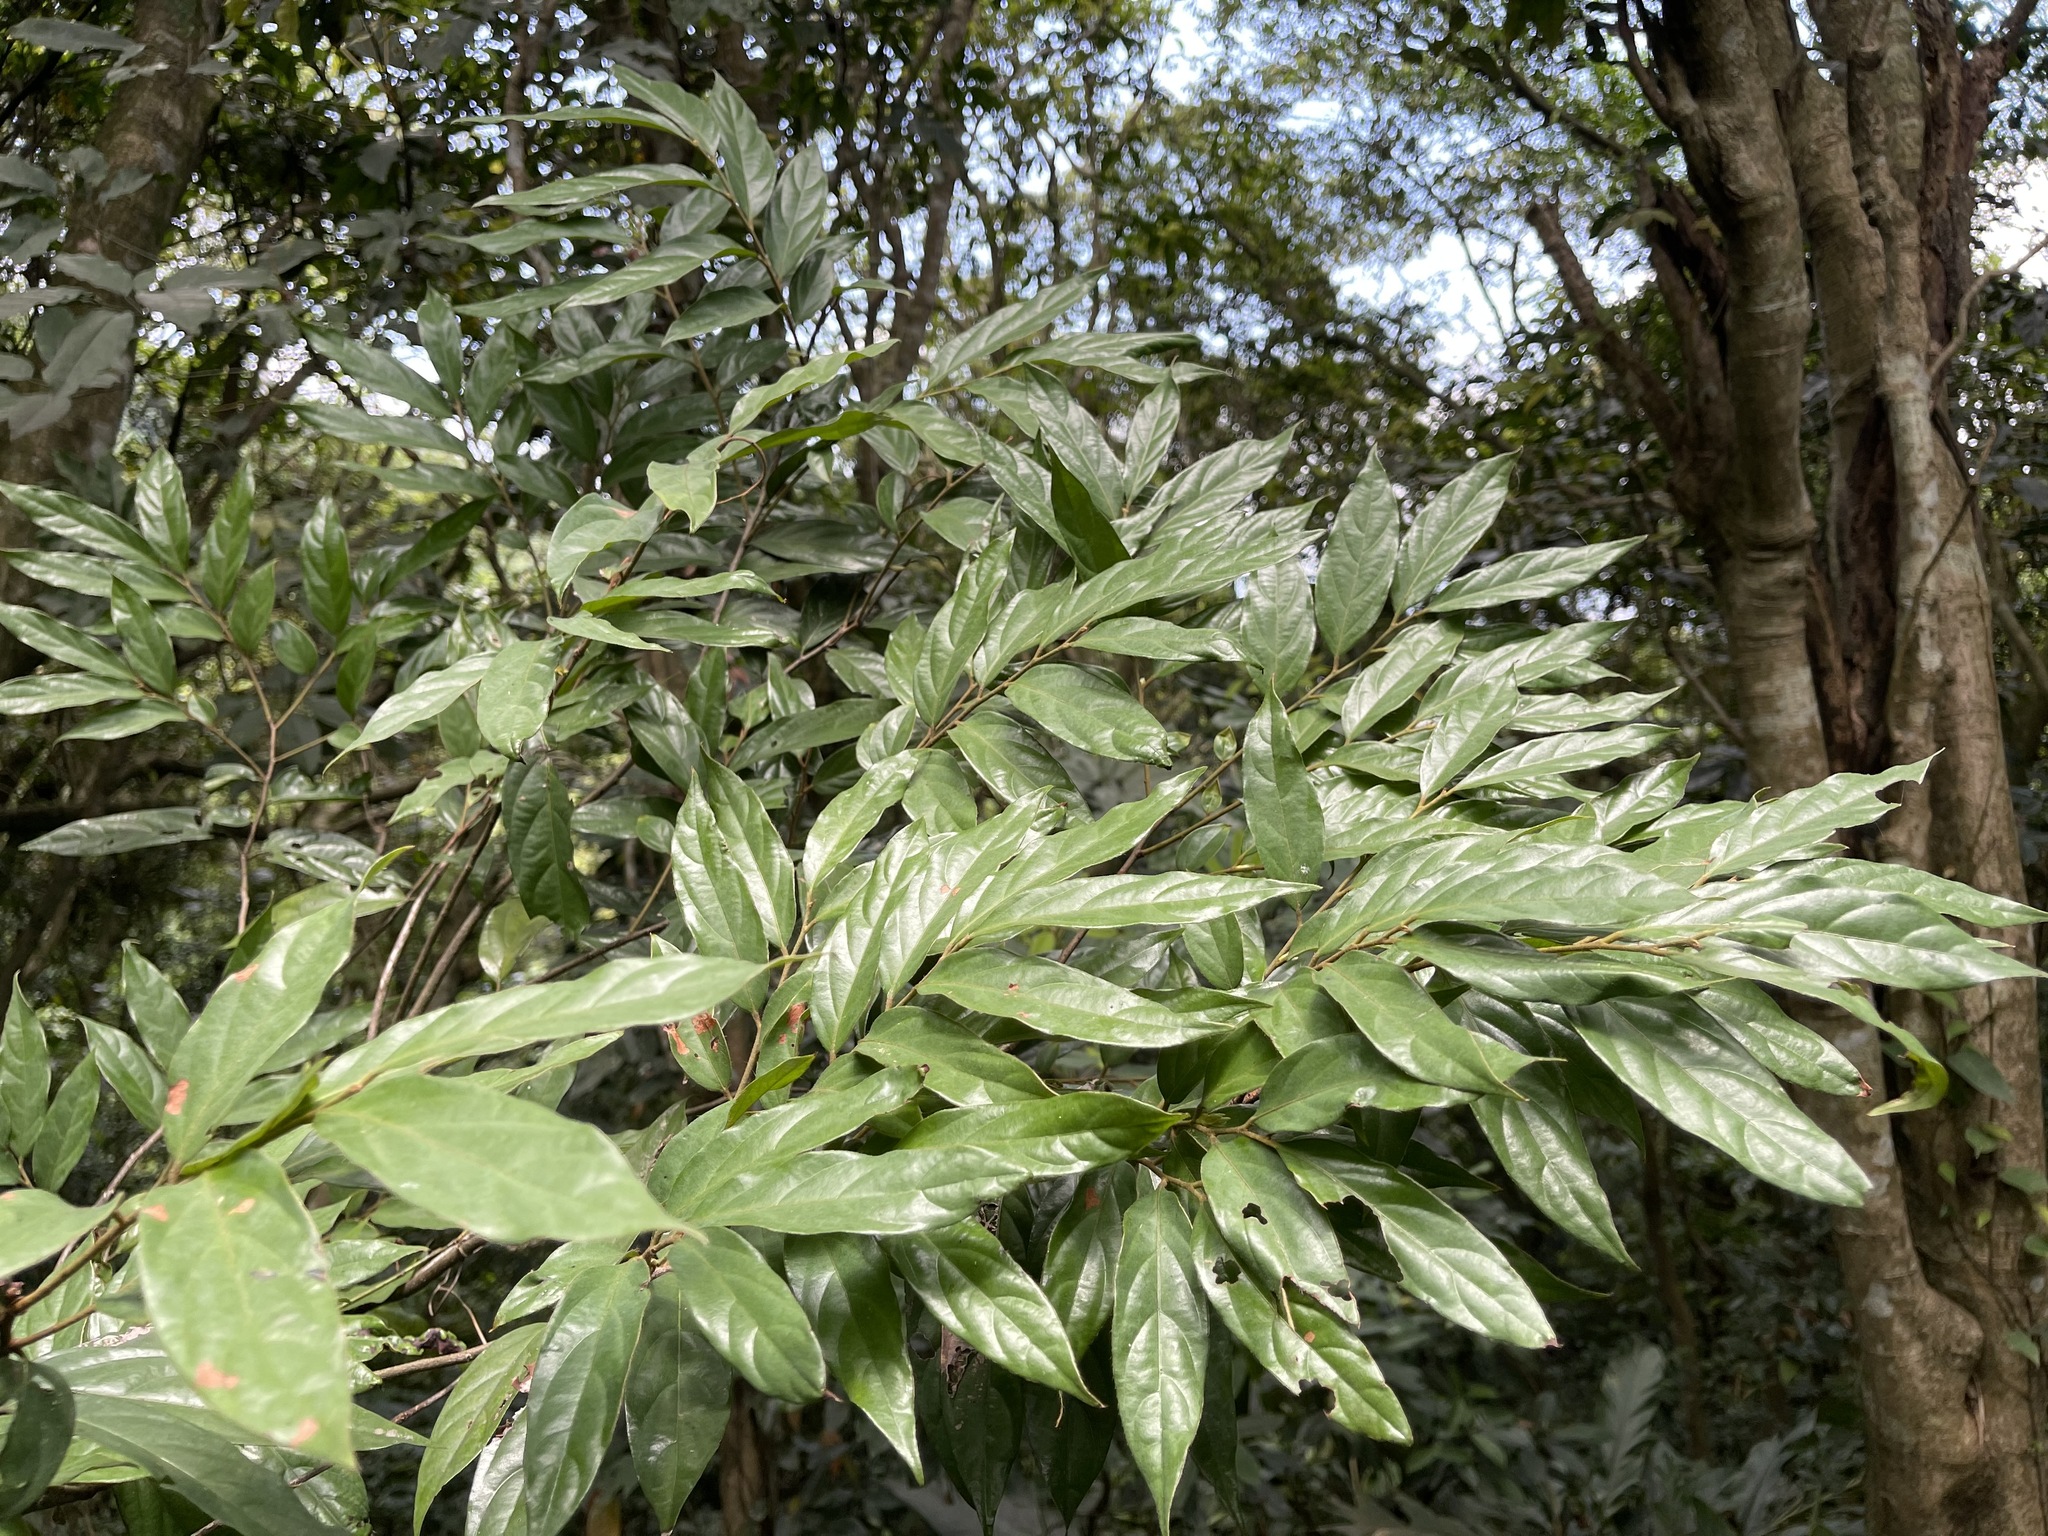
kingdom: Plantae
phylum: Tracheophyta
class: Magnoliopsida
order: Ericales
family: Ebenaceae
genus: Diospyros
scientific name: Diospyros eriantha
